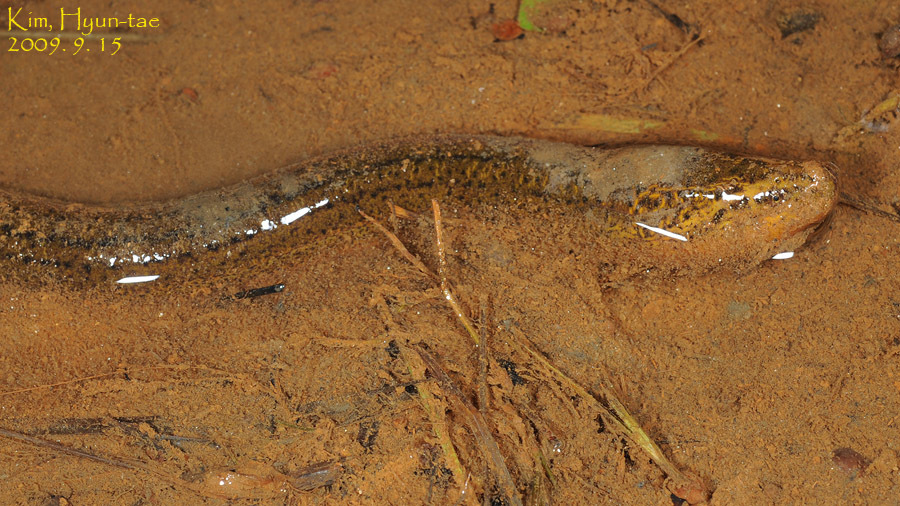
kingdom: Animalia
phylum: Chordata
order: Synbranchiformes
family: Synbranchidae
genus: Monopterus
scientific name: Monopterus albus
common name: Asian swamp eel
